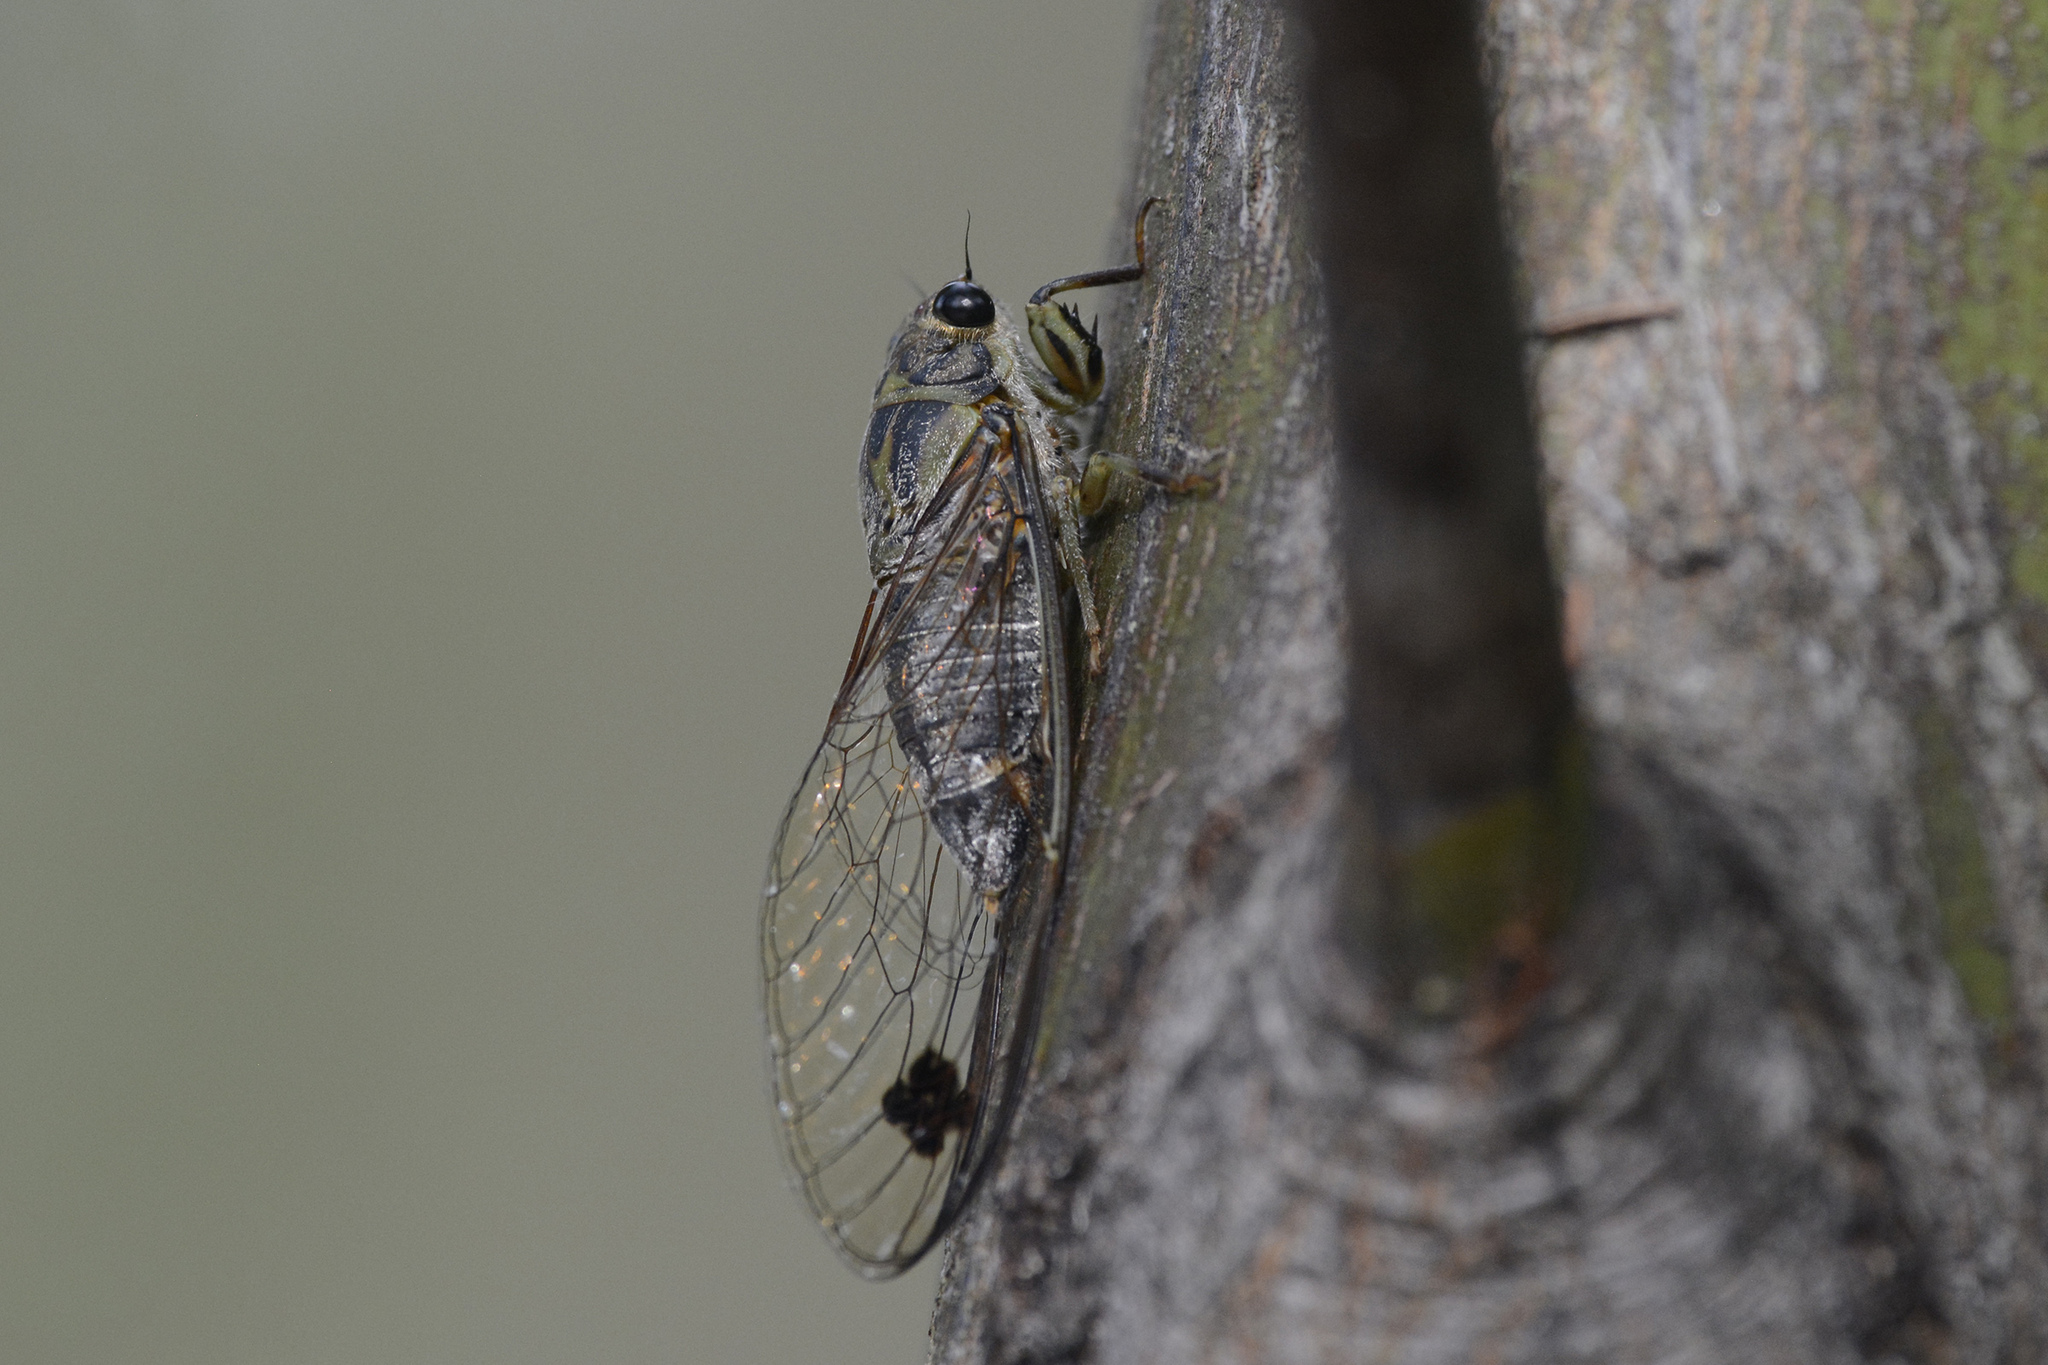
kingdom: Animalia
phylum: Arthropoda
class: Insecta
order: Hemiptera
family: Cicadidae
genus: Galanga
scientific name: Galanga labeculata
